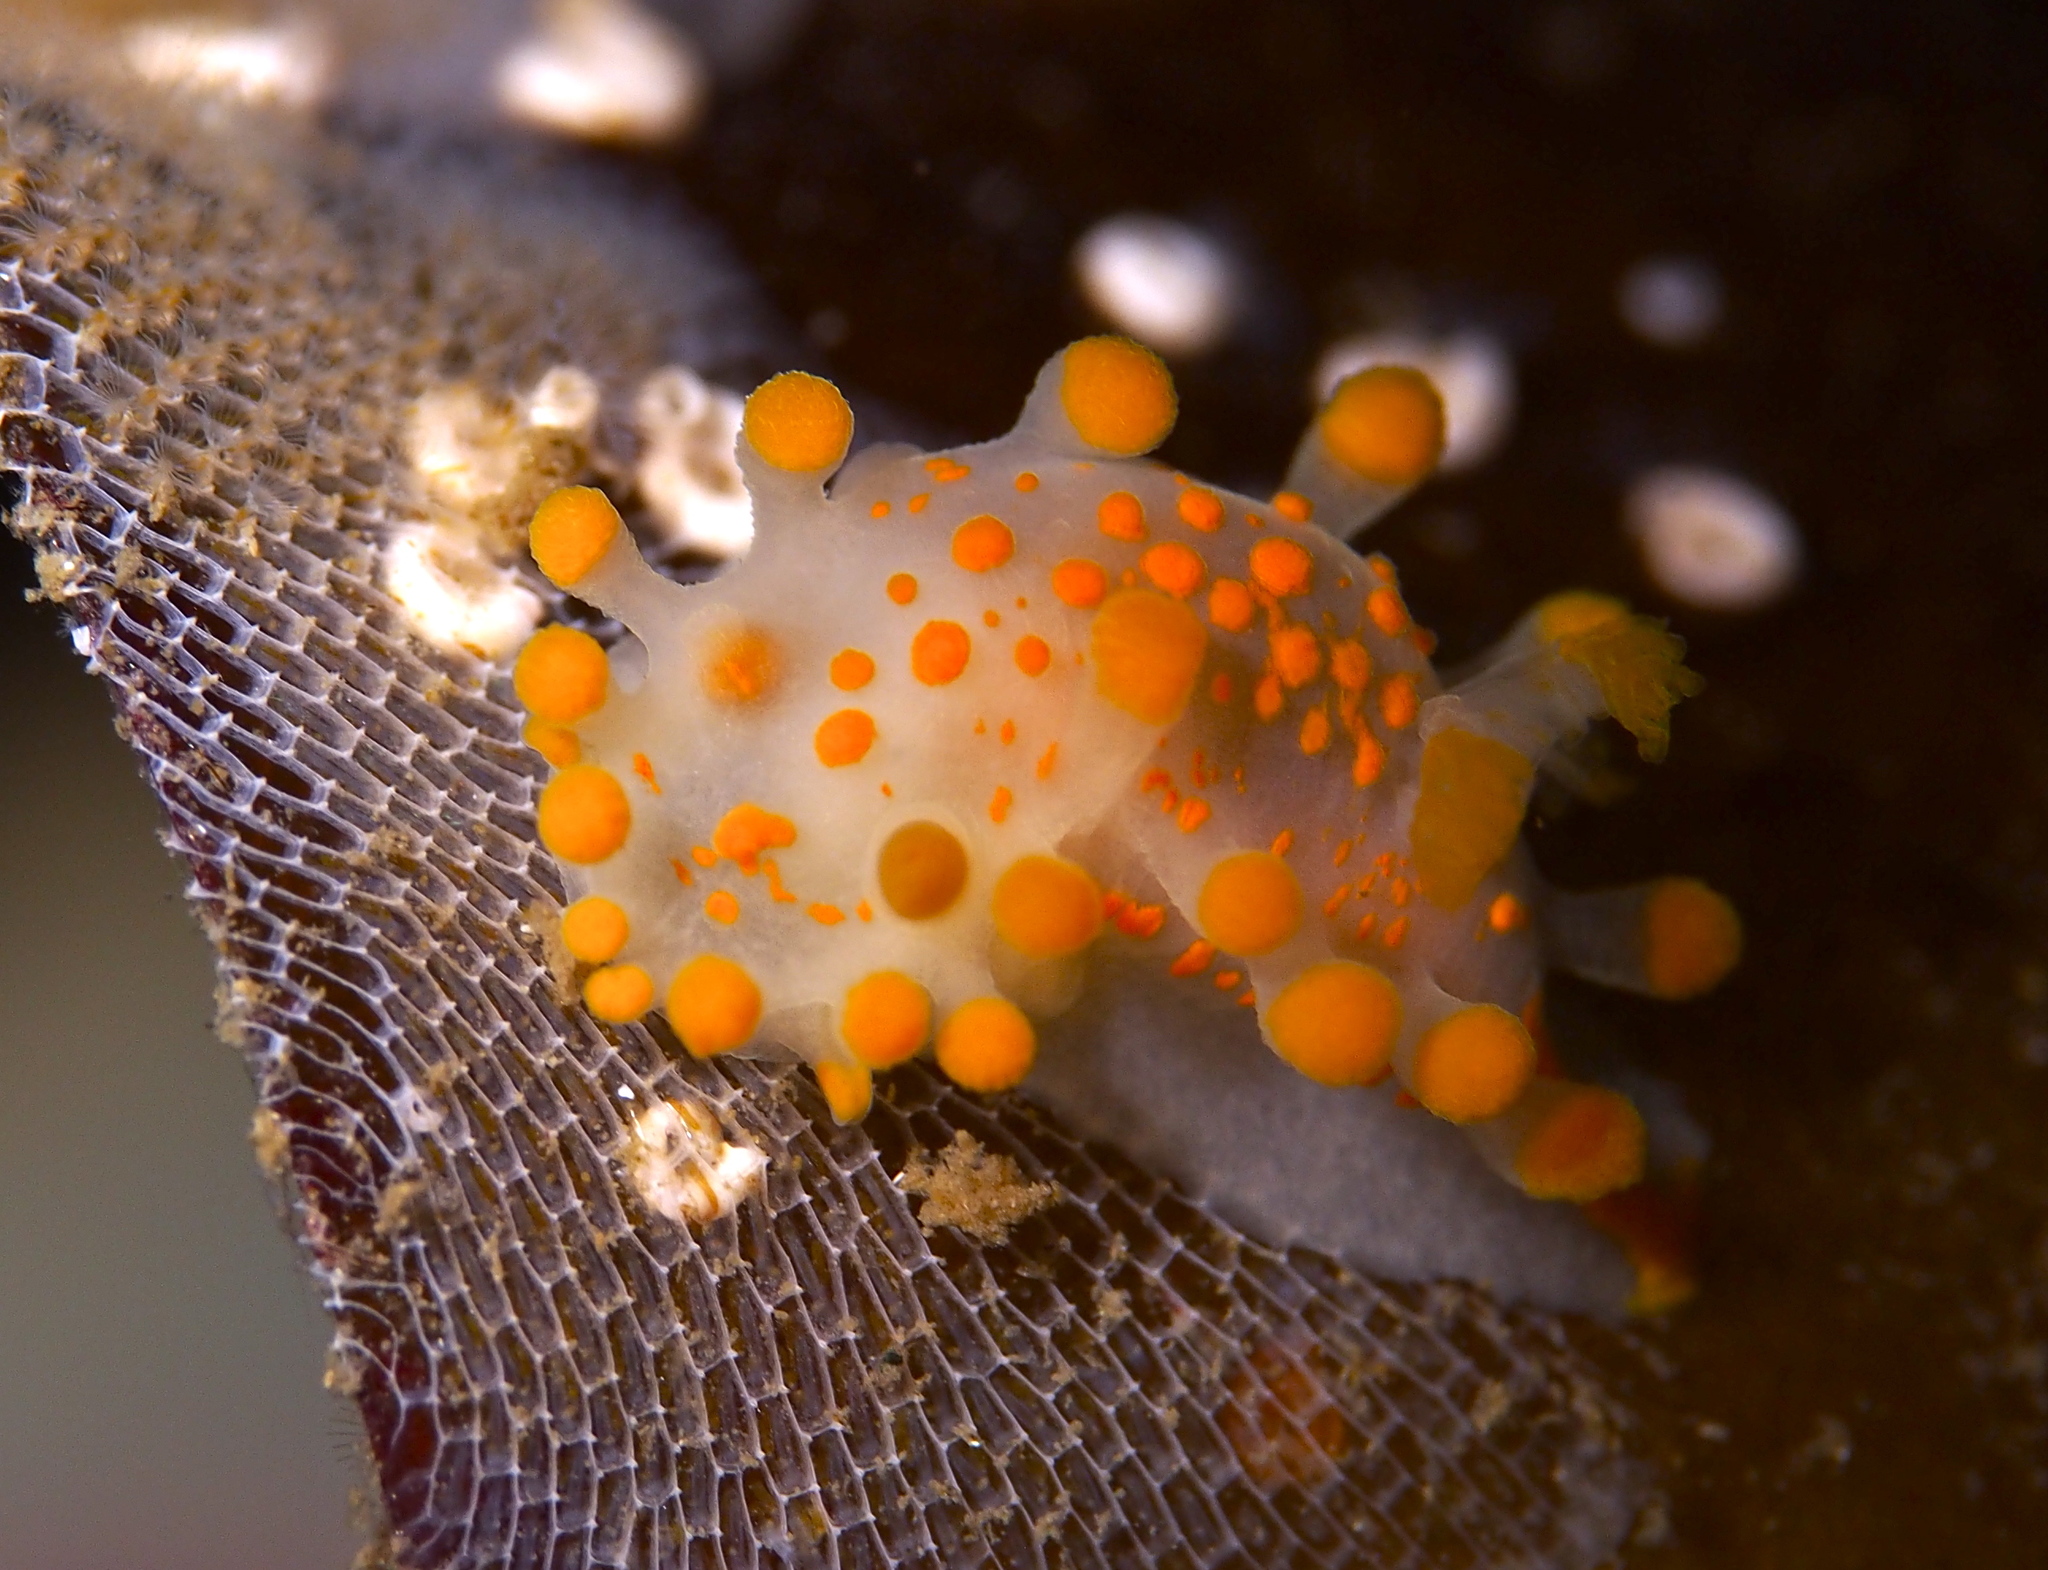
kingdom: Animalia
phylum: Mollusca
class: Gastropoda
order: Nudibranchia
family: Polyceridae
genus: Limacia
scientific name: Limacia clavigera
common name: Orange-clubbed sea slug
